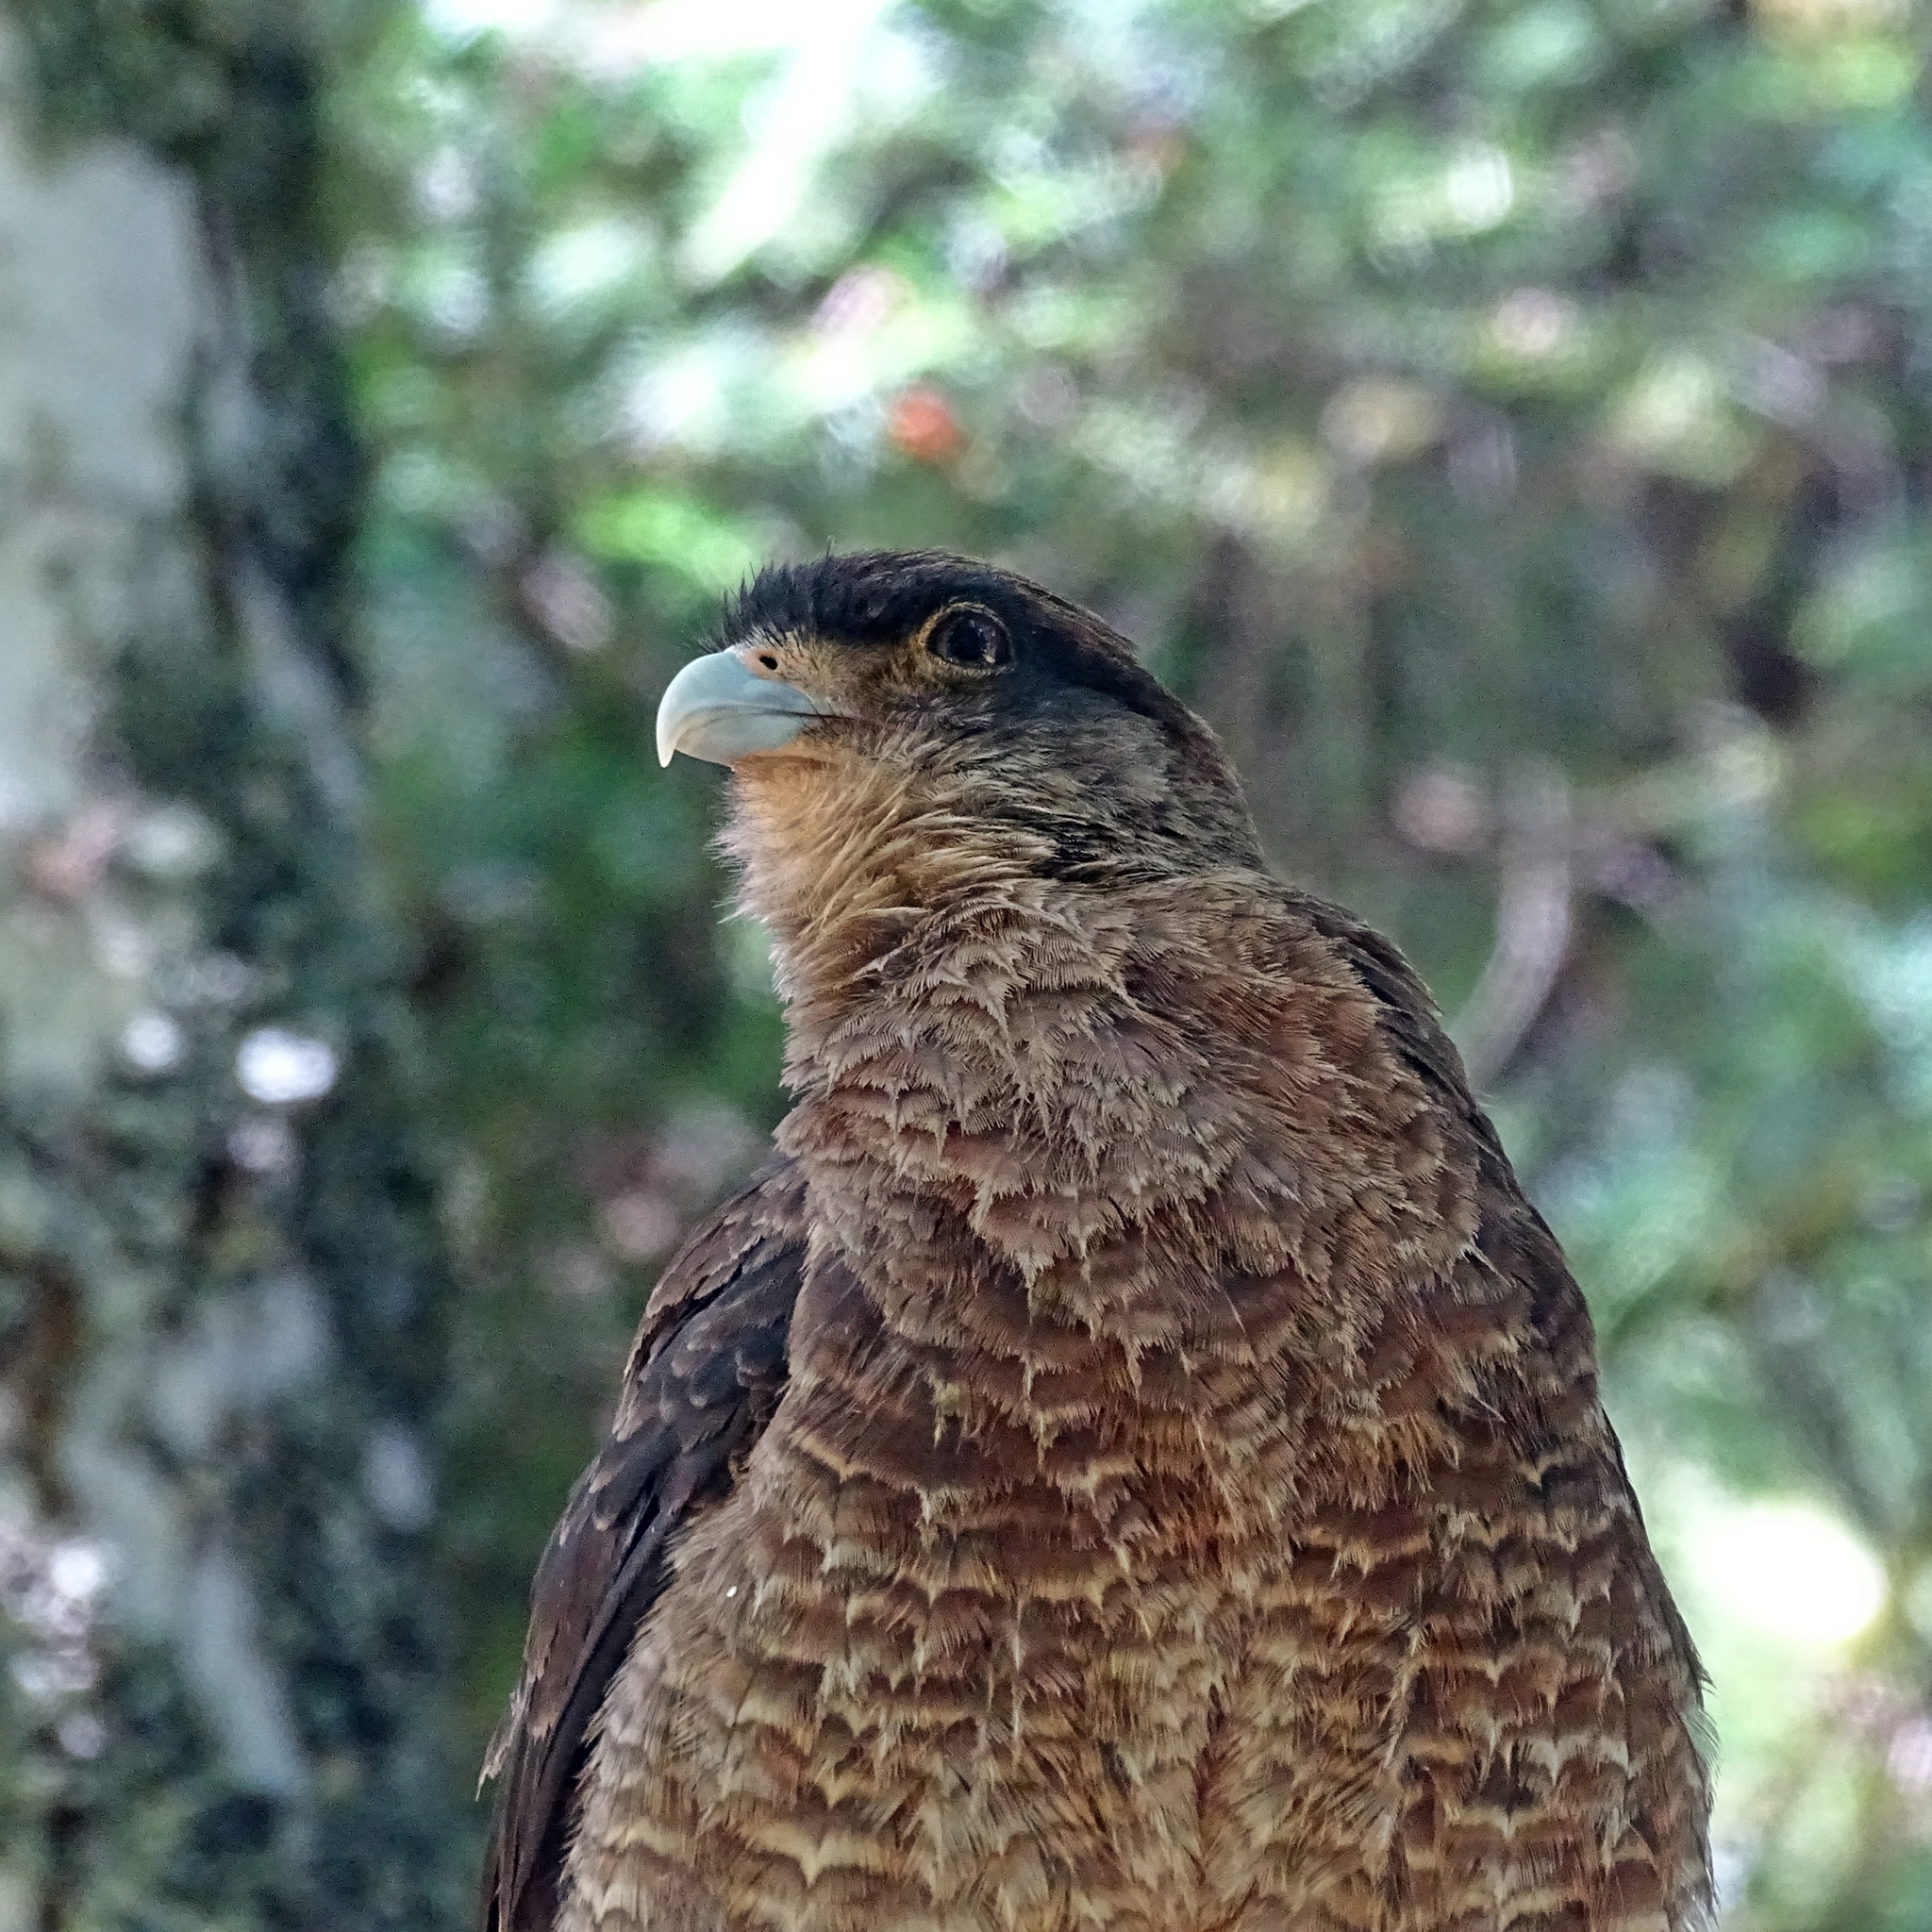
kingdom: Animalia
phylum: Chordata
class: Aves
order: Falconiformes
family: Falconidae
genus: Daptrius
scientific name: Daptrius
